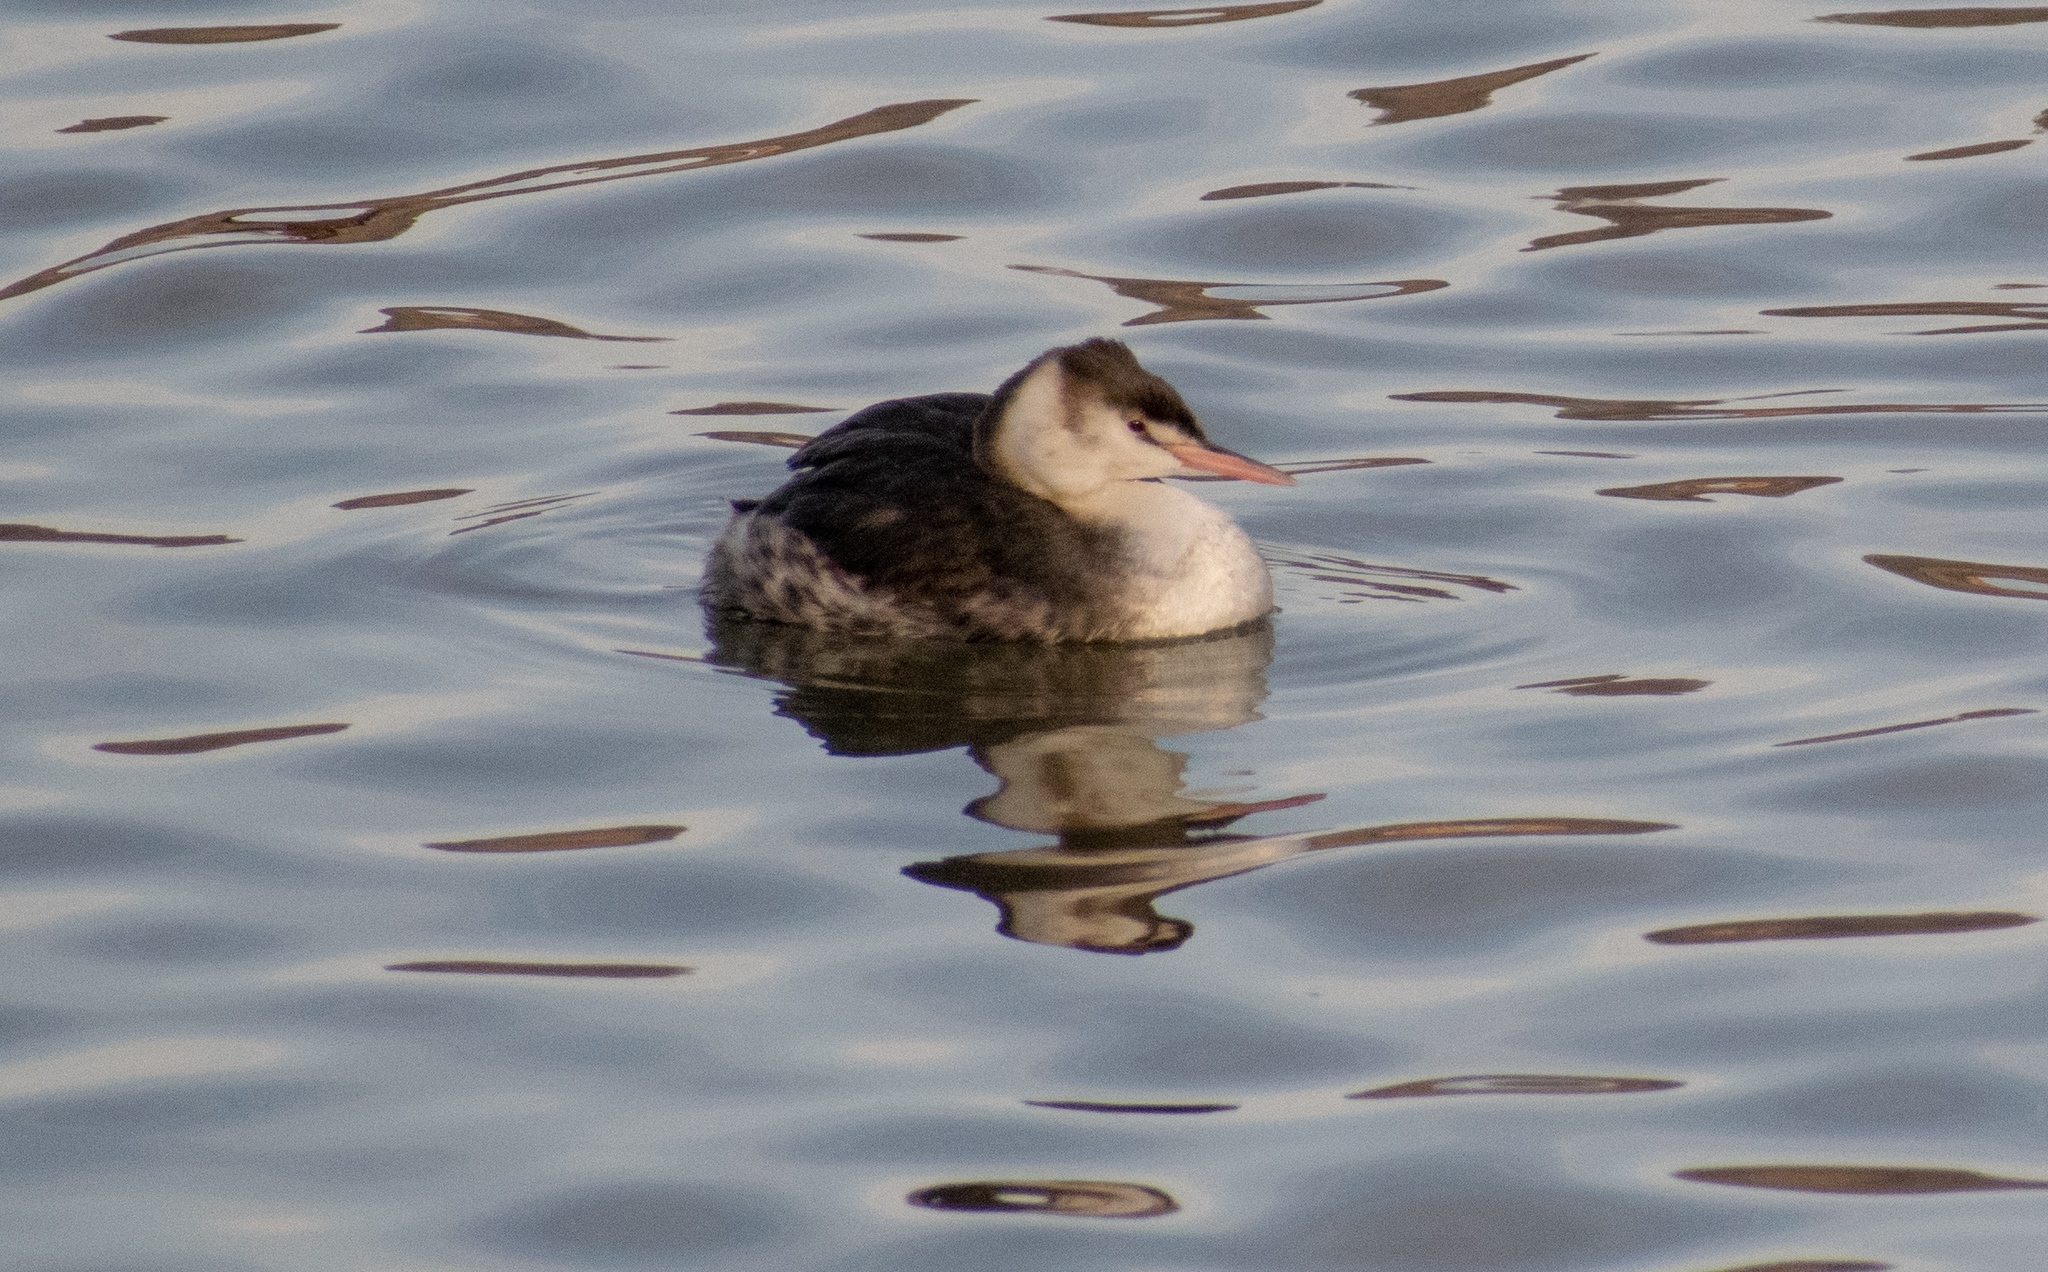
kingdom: Animalia
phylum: Chordata
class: Aves
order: Podicipediformes
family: Podicipedidae
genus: Podiceps
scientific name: Podiceps cristatus
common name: Great crested grebe
